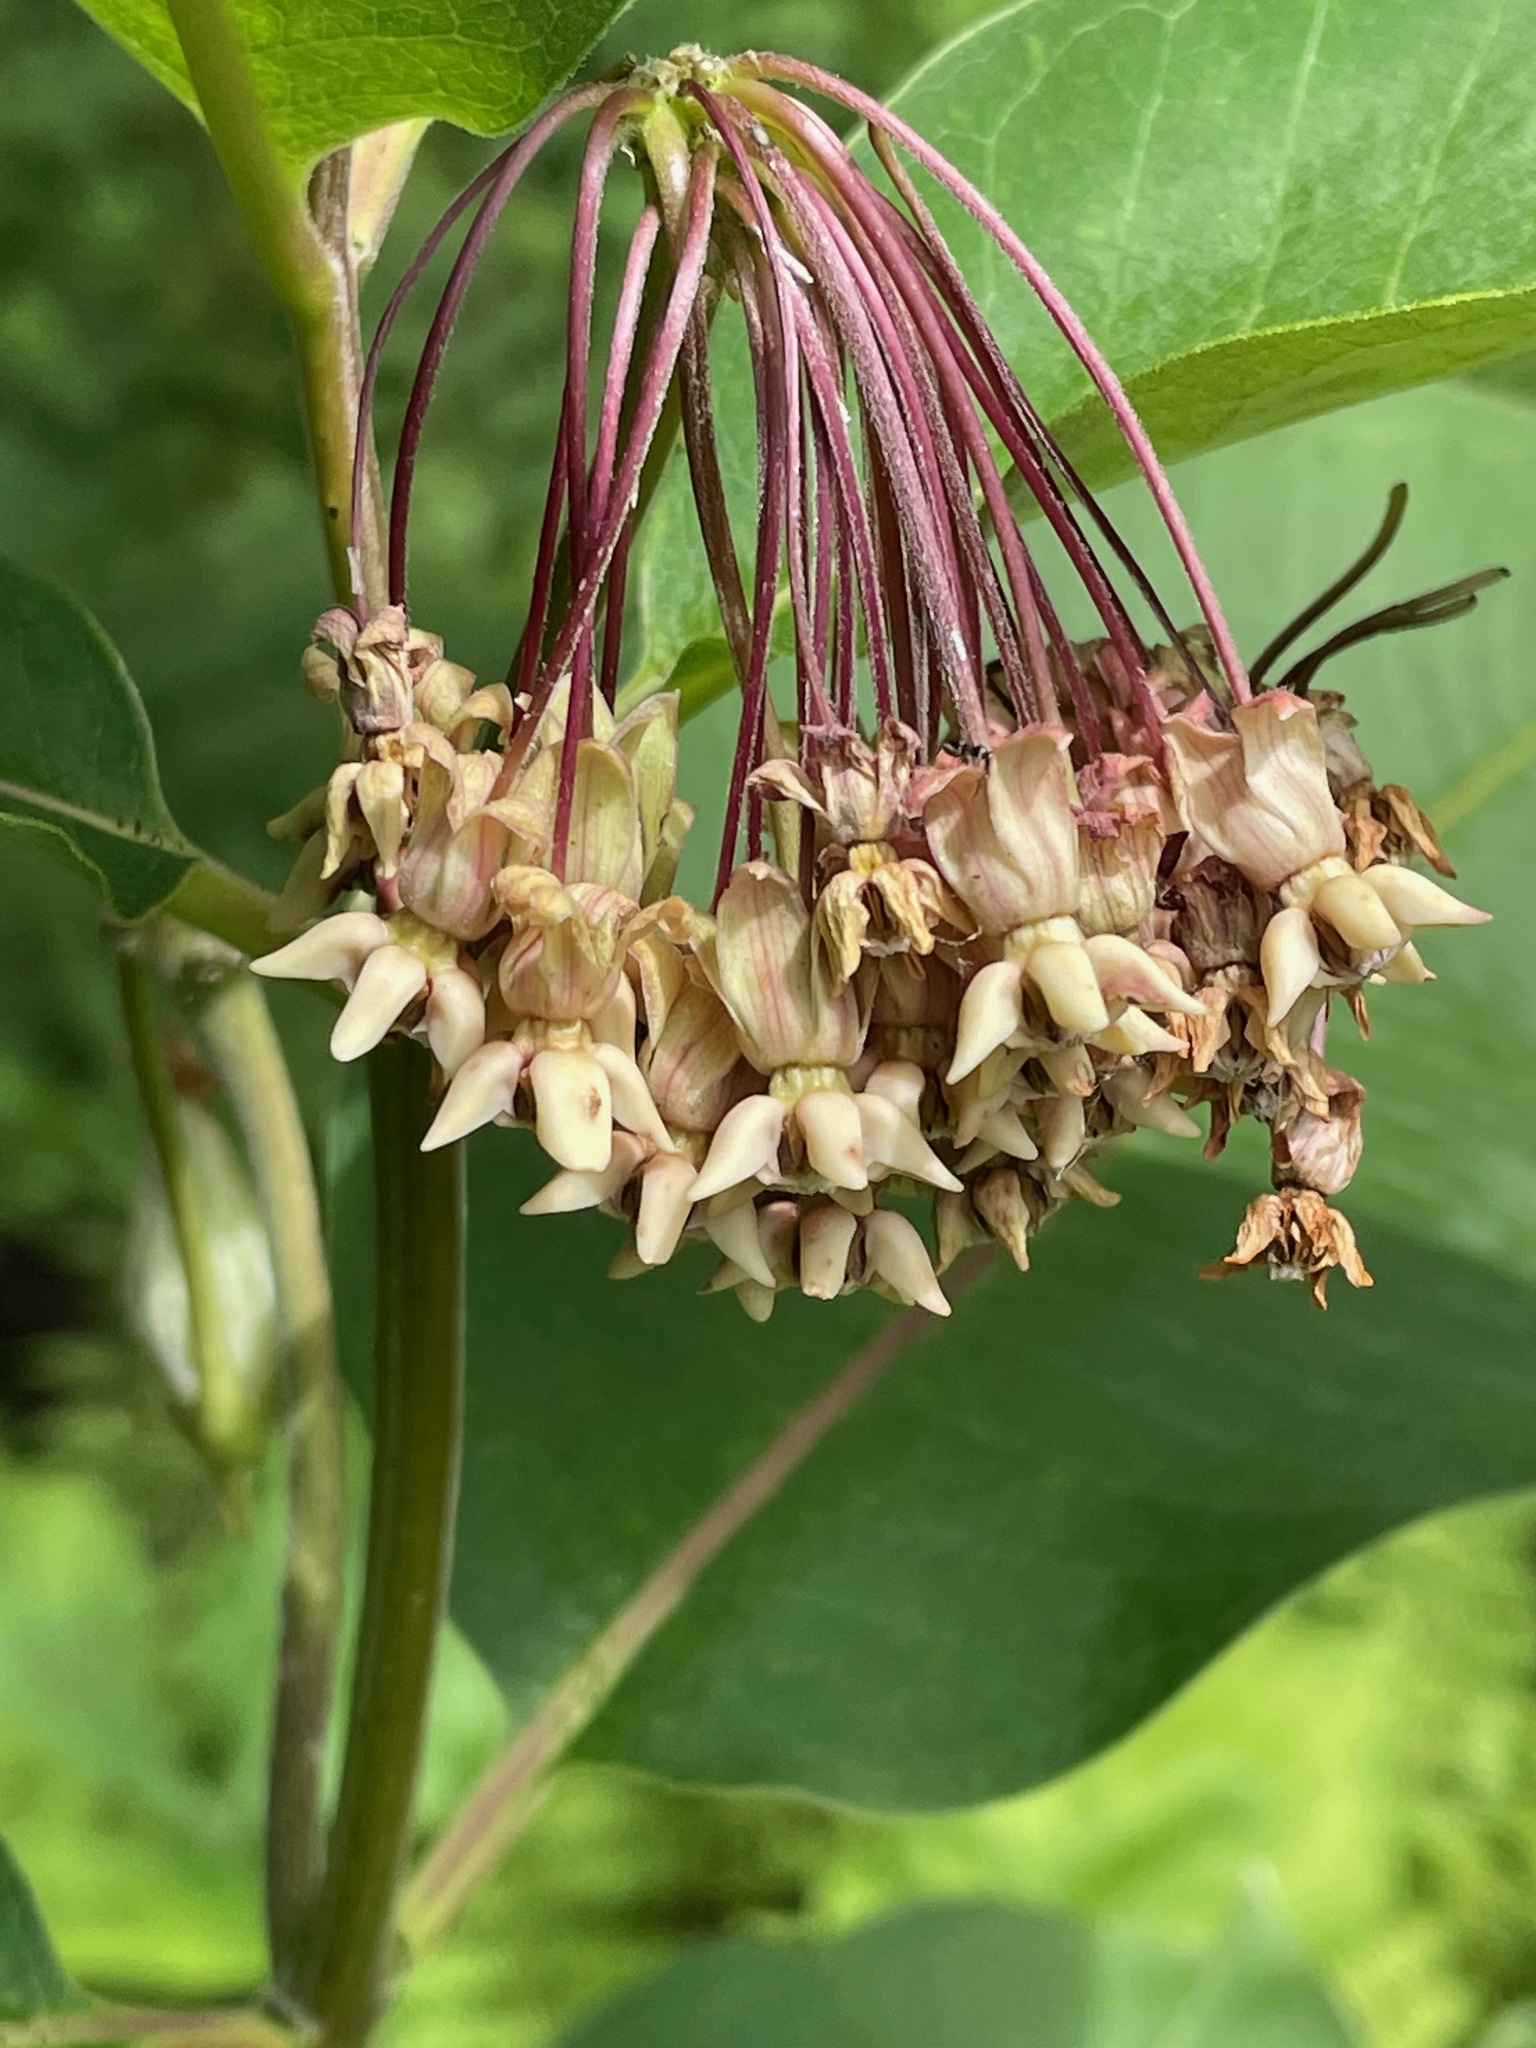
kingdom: Plantae
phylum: Tracheophyta
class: Magnoliopsida
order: Gentianales
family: Apocynaceae
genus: Asclepias
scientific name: Asclepias syriaca
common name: Common milkweed
